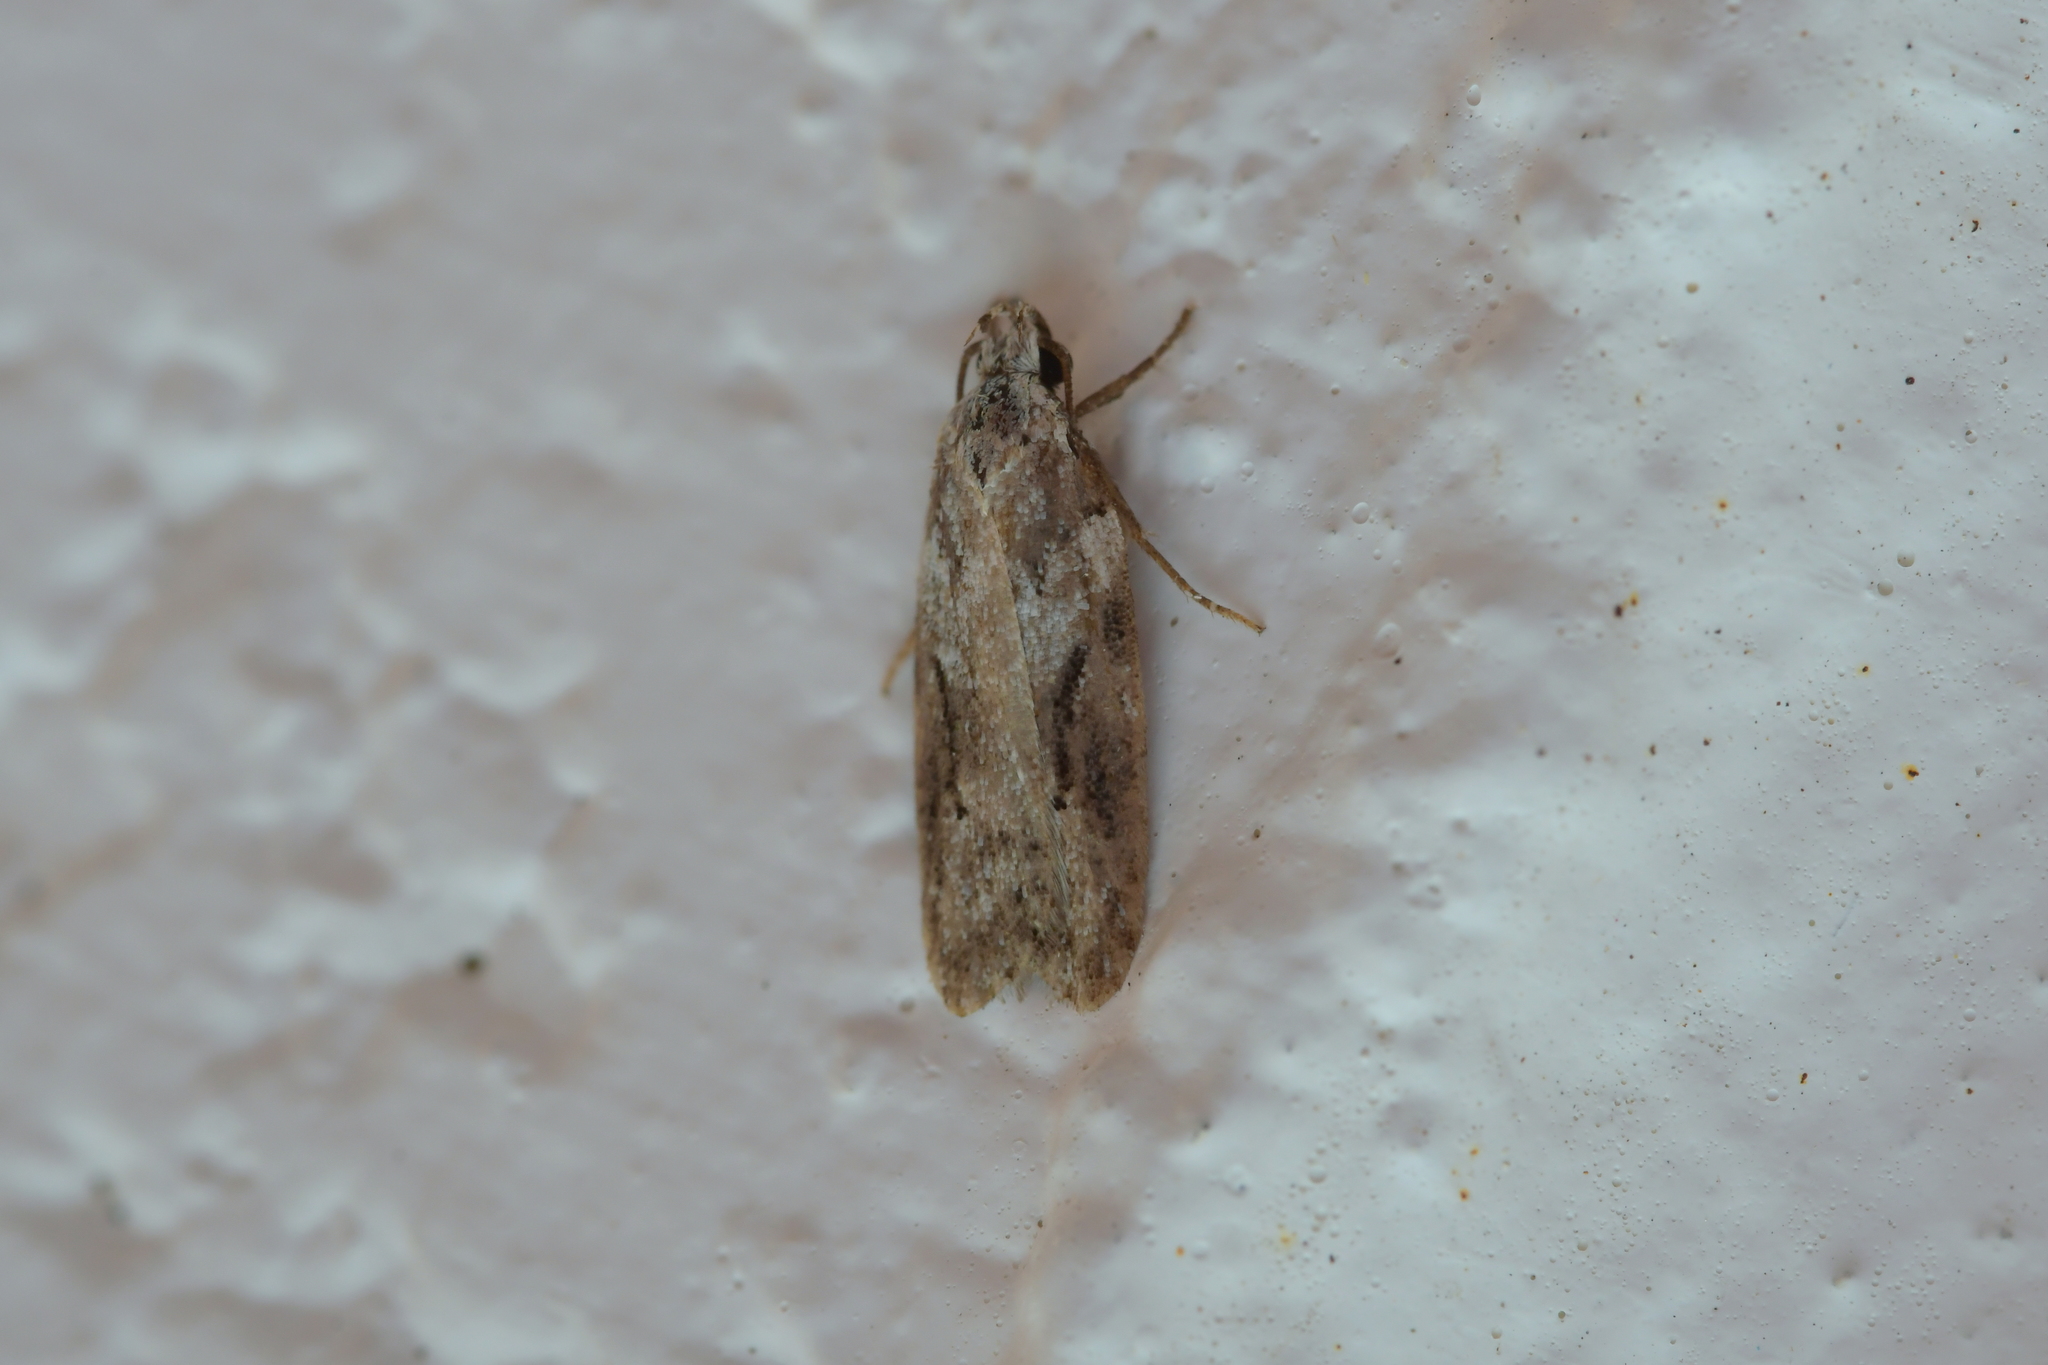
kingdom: Animalia
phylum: Arthropoda
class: Insecta
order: Lepidoptera
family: Oecophoridae
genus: Izatha
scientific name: Izatha mesoschista
